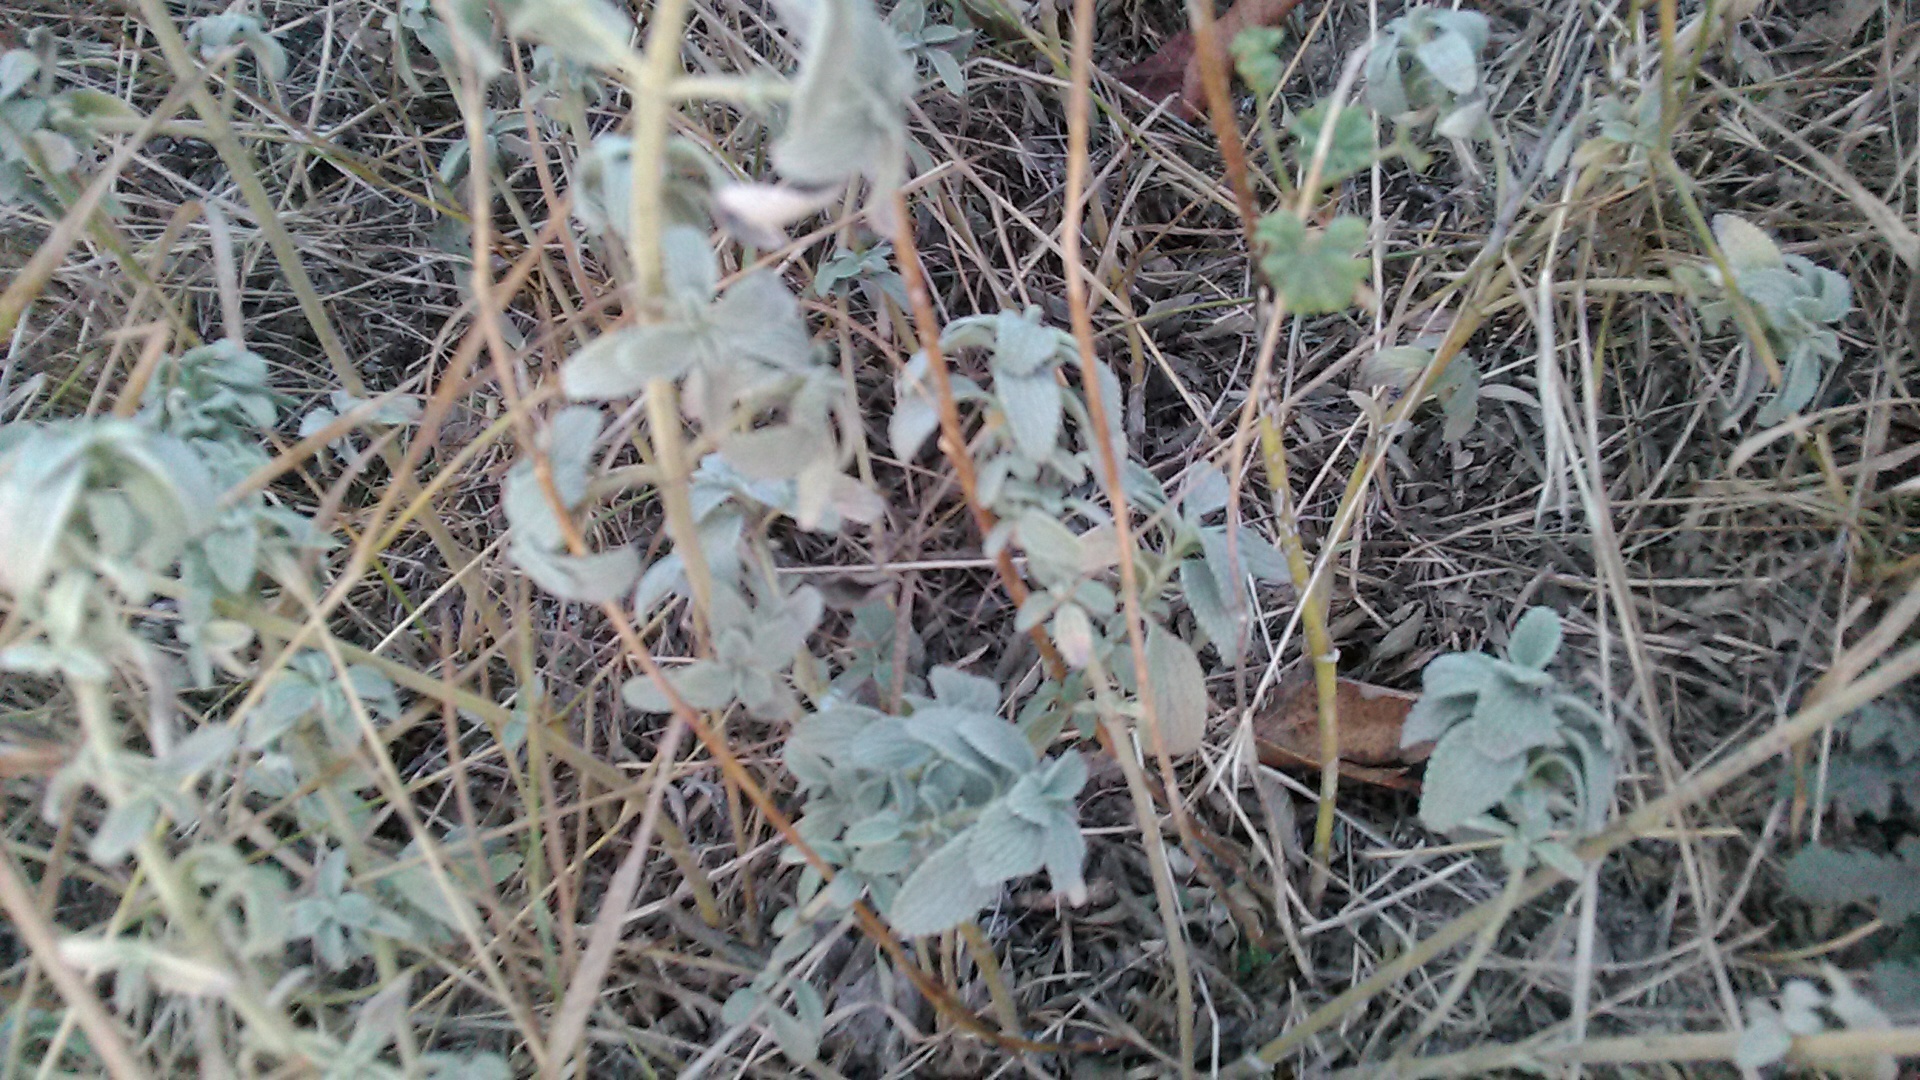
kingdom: Plantae
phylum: Tracheophyta
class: Magnoliopsida
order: Lamiales
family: Lamiaceae
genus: Marrubium
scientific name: Marrubium peregrinum
